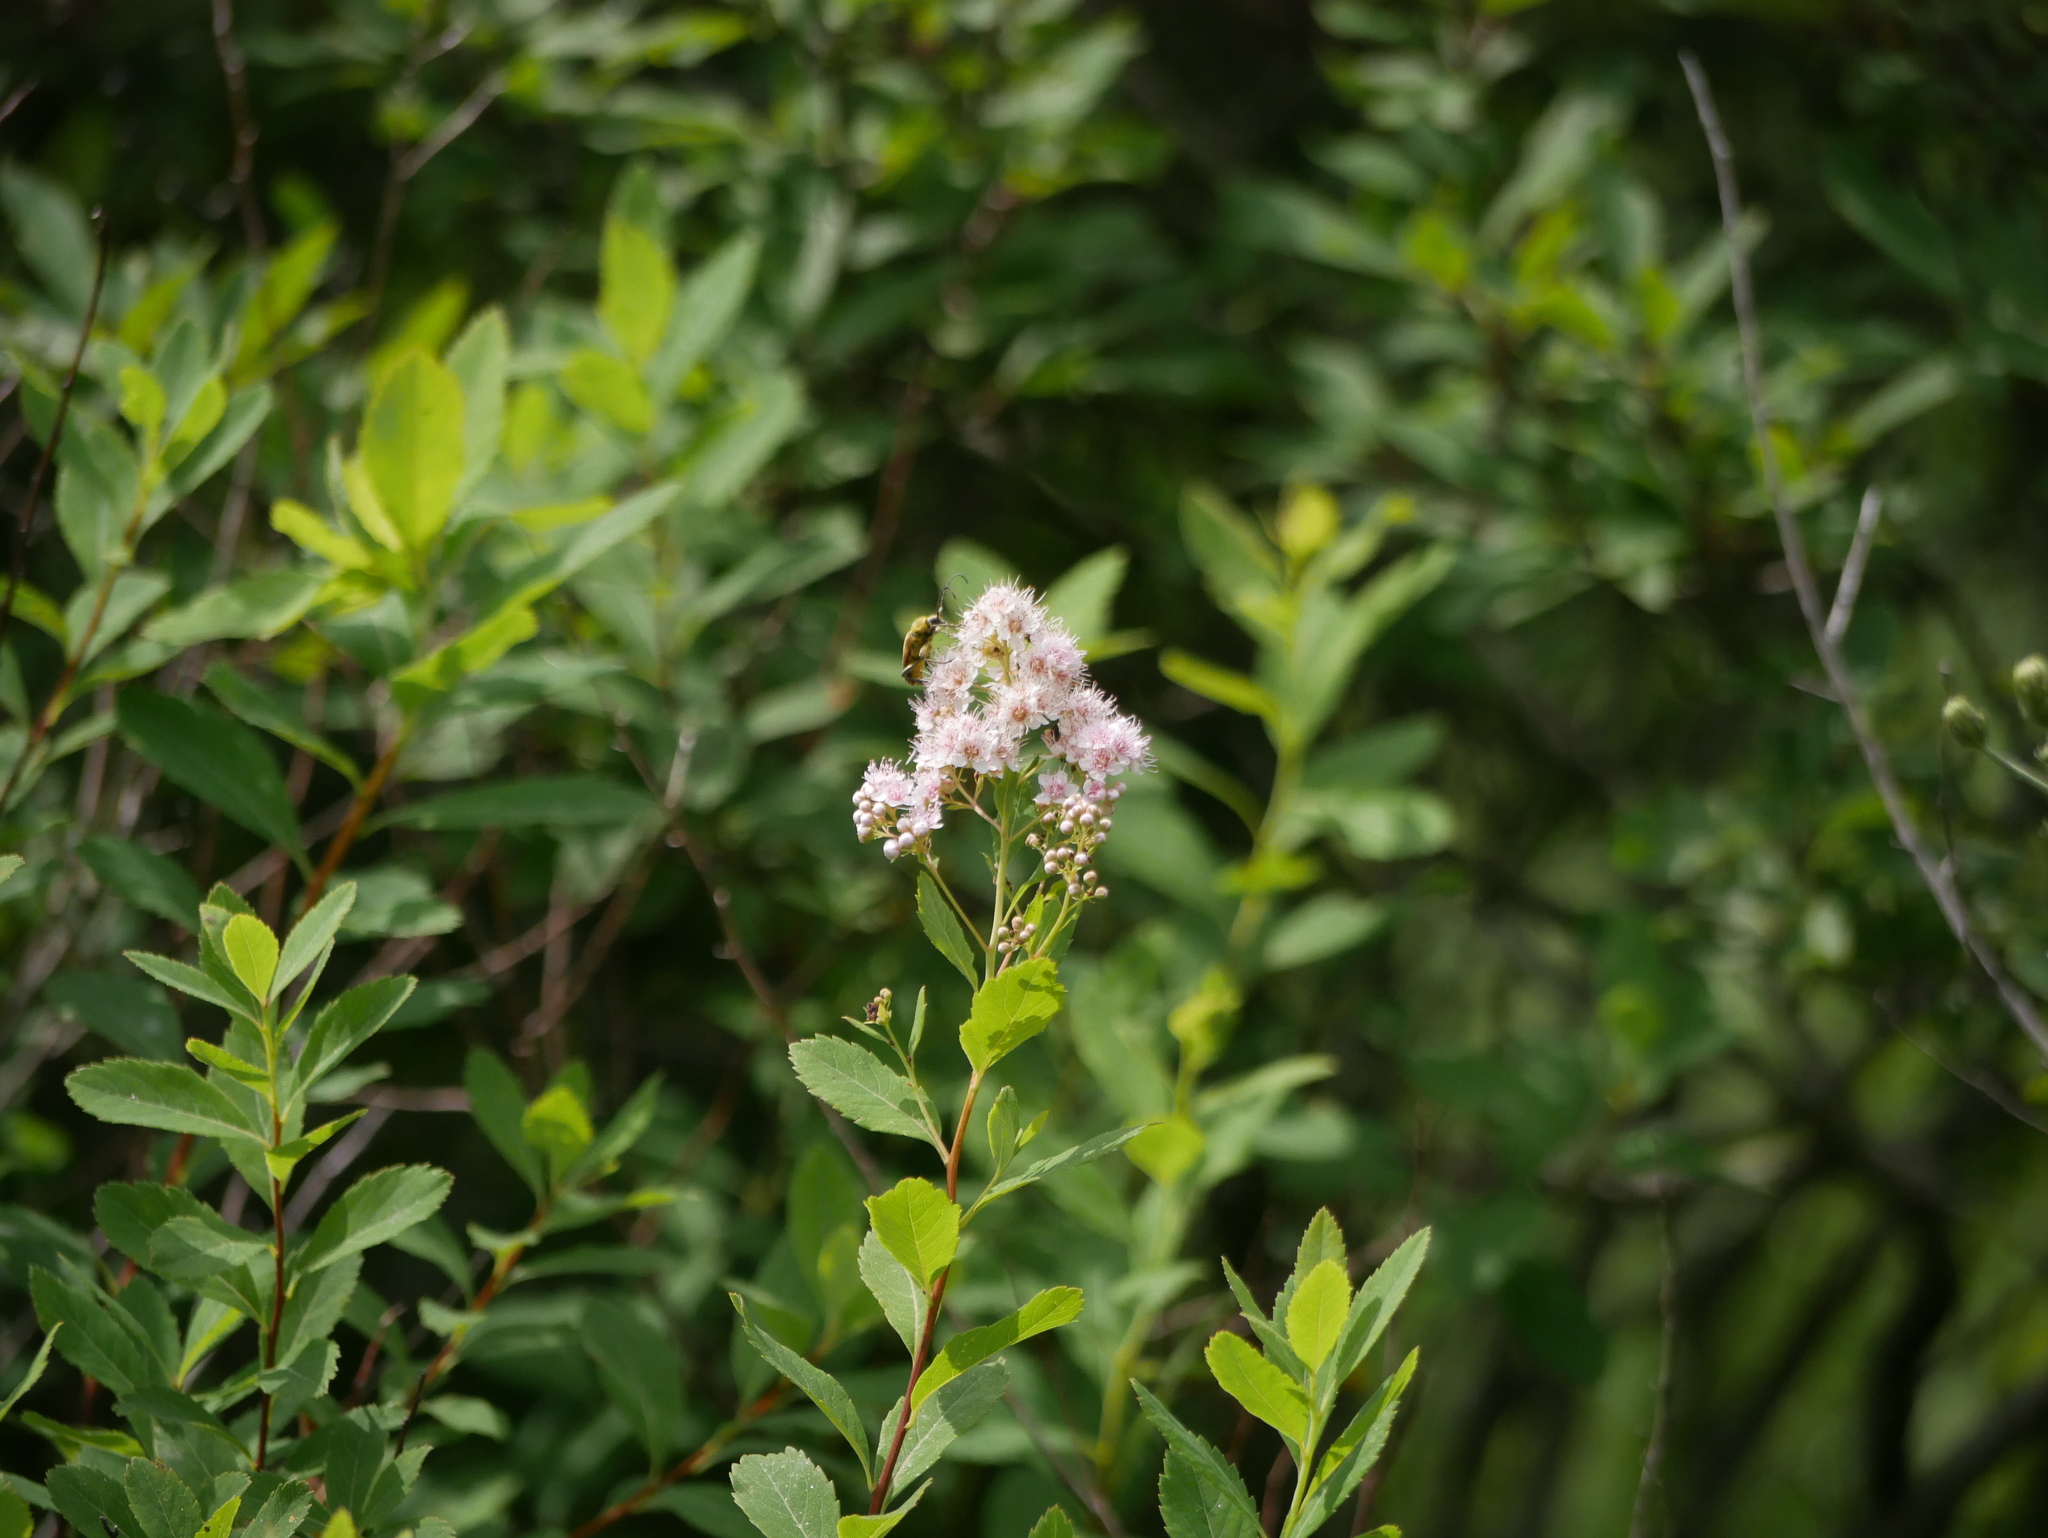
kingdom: Plantae
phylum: Tracheophyta
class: Magnoliopsida
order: Rosales
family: Rosaceae
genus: Spiraea
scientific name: Spiraea alba
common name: Pale bridewort
